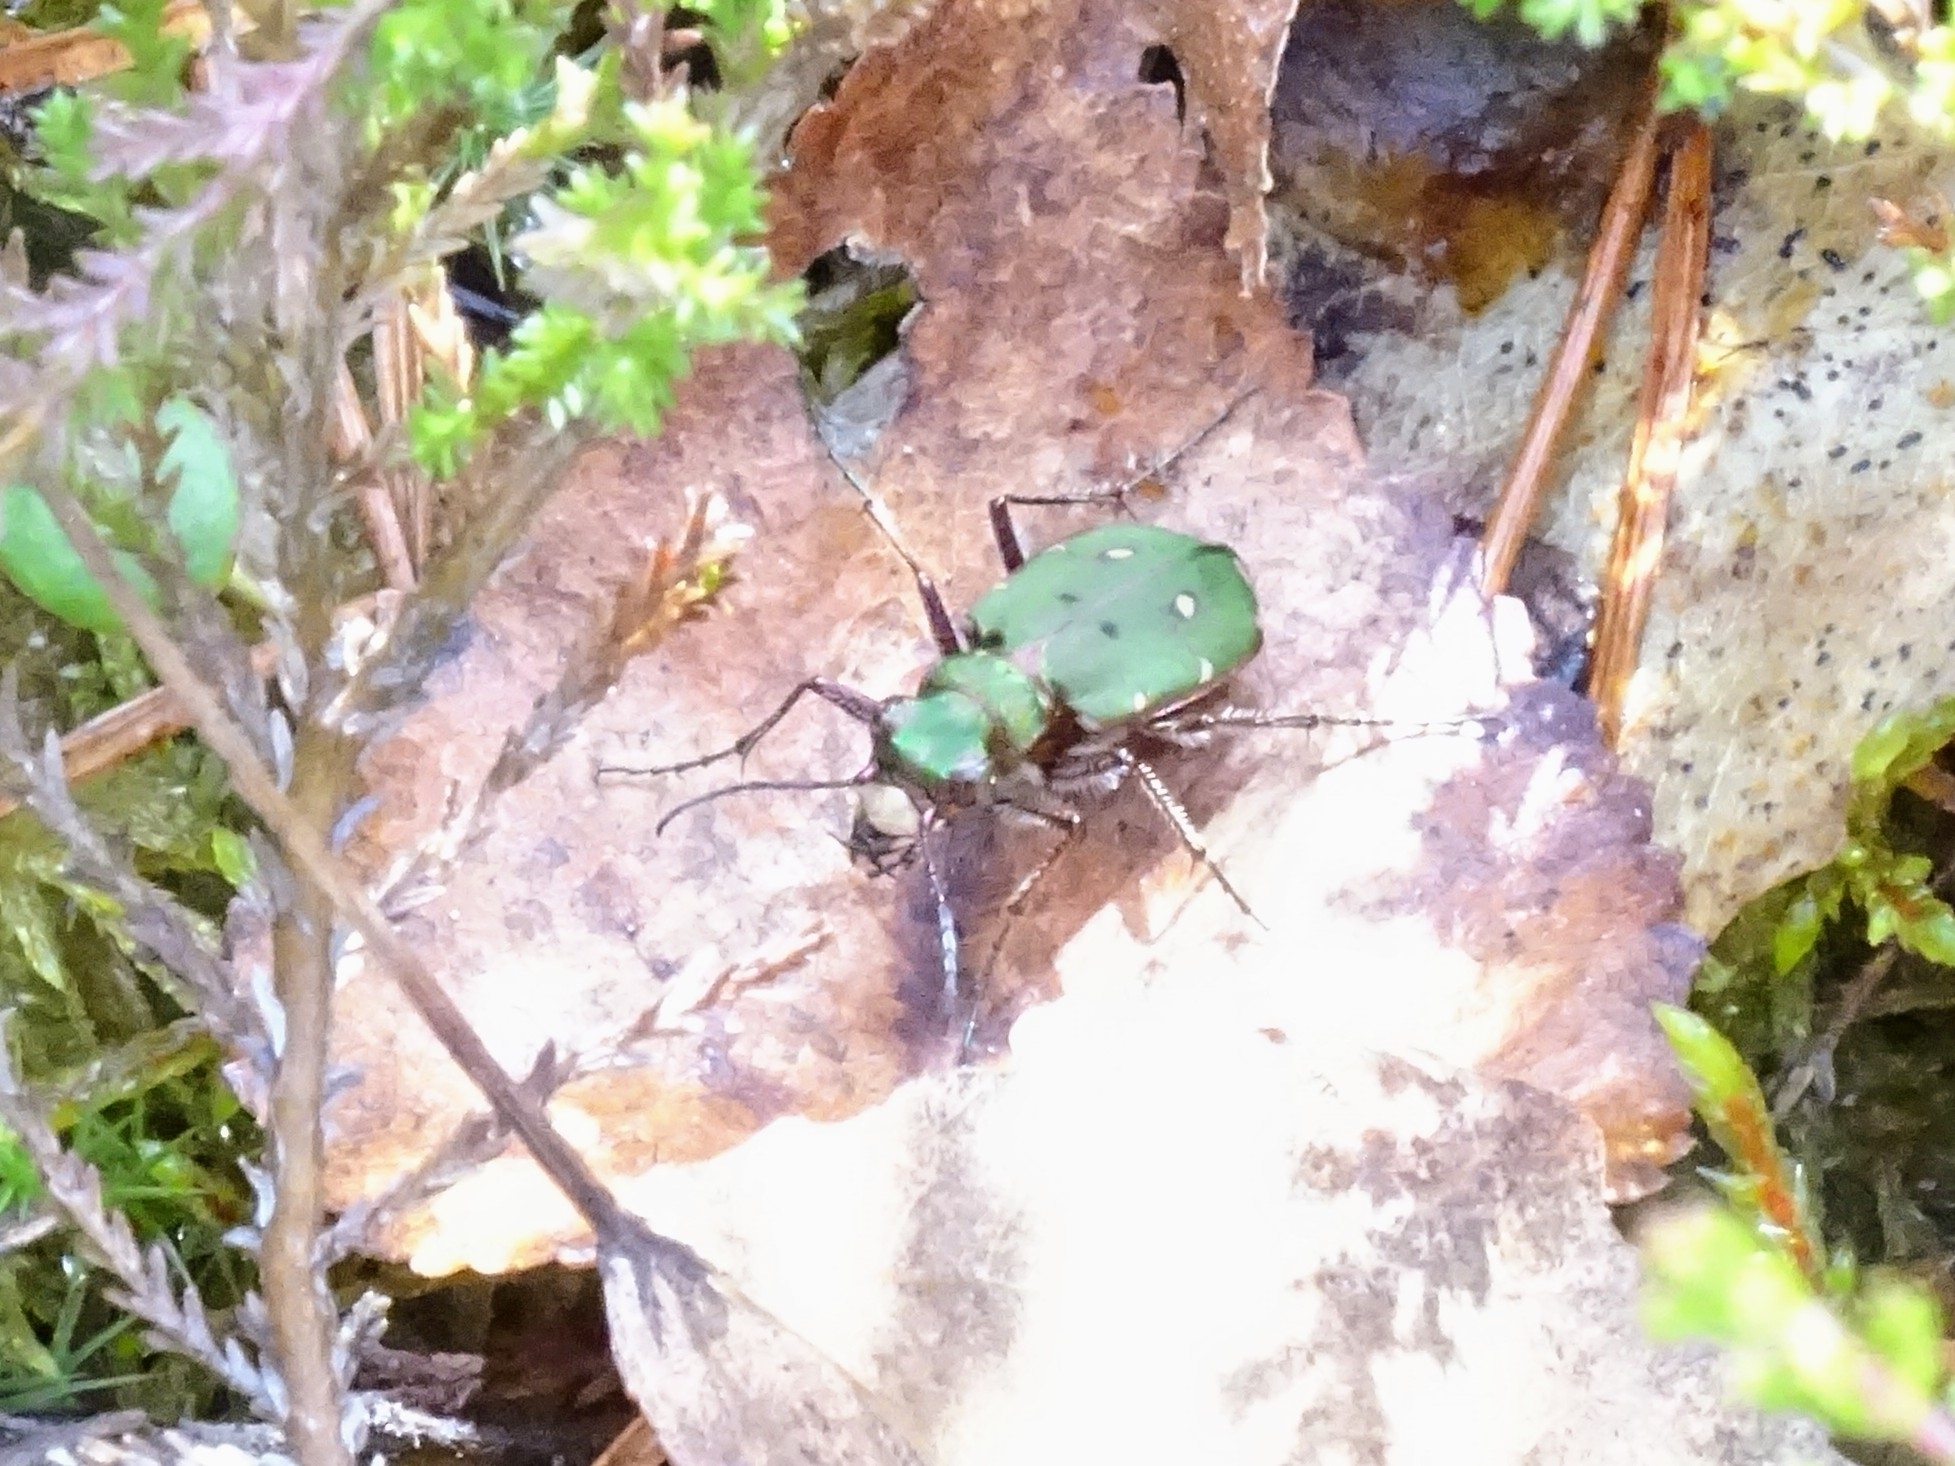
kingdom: Animalia
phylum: Arthropoda
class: Insecta
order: Coleoptera
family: Carabidae
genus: Cicindela
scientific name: Cicindela campestris
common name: Common tiger beetle
